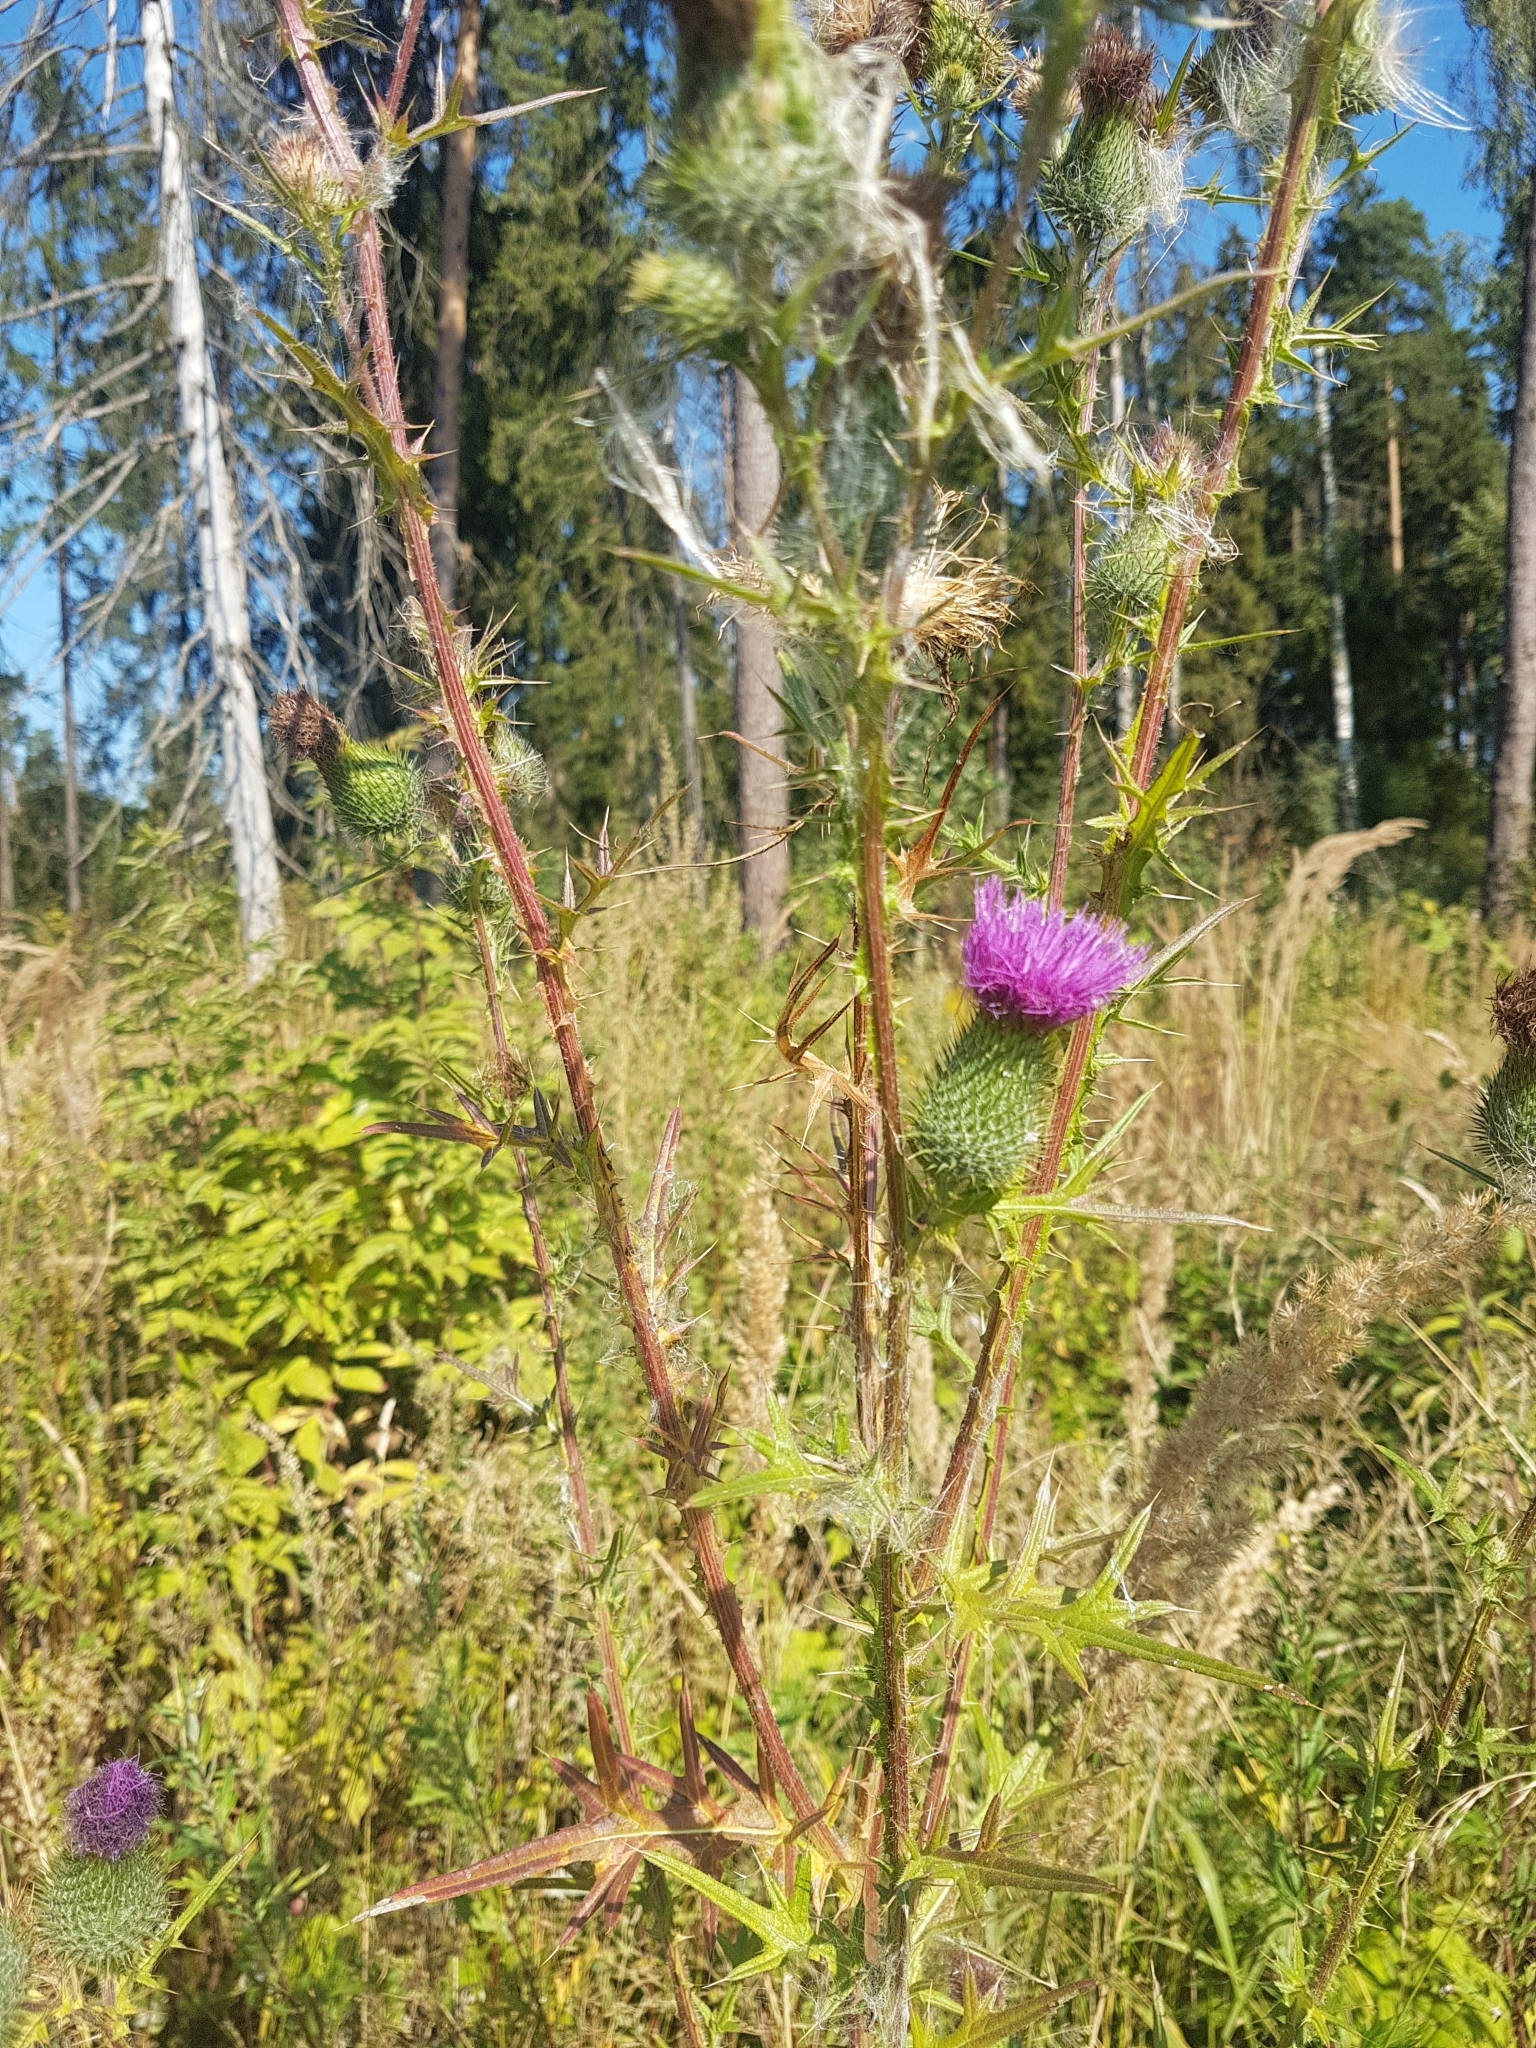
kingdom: Plantae
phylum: Tracheophyta
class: Magnoliopsida
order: Asterales
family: Asteraceae
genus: Cirsium
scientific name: Cirsium vulgare
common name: Bull thistle
